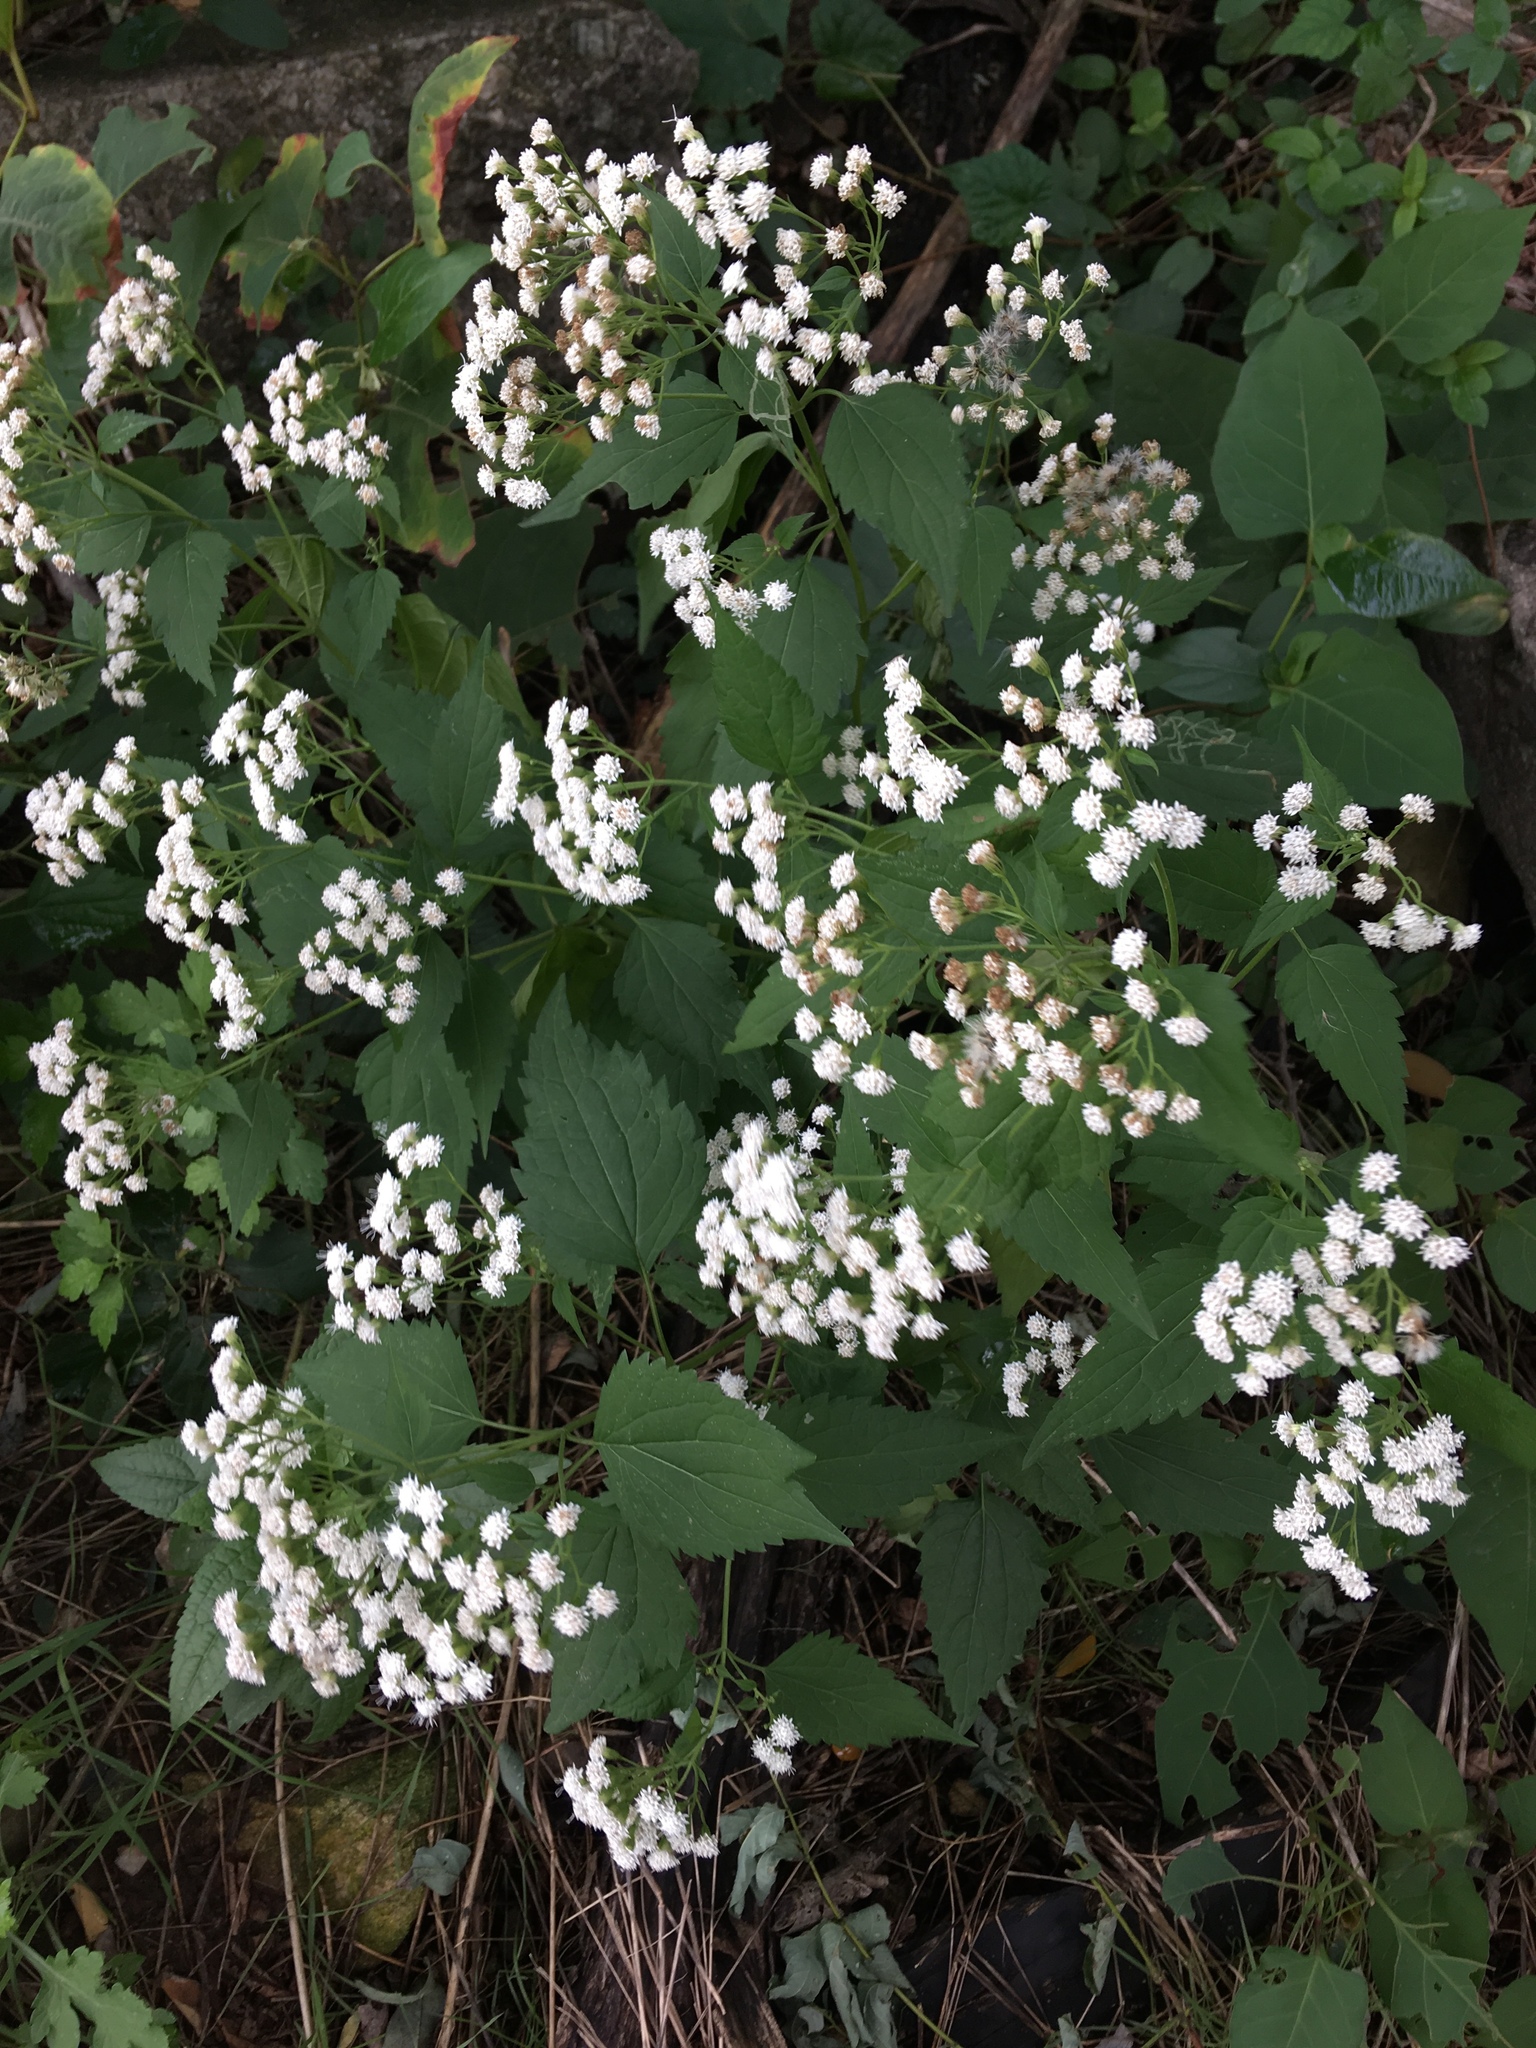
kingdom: Plantae
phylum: Tracheophyta
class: Magnoliopsida
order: Asterales
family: Asteraceae
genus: Ageratina
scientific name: Ageratina altissima
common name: White snakeroot
